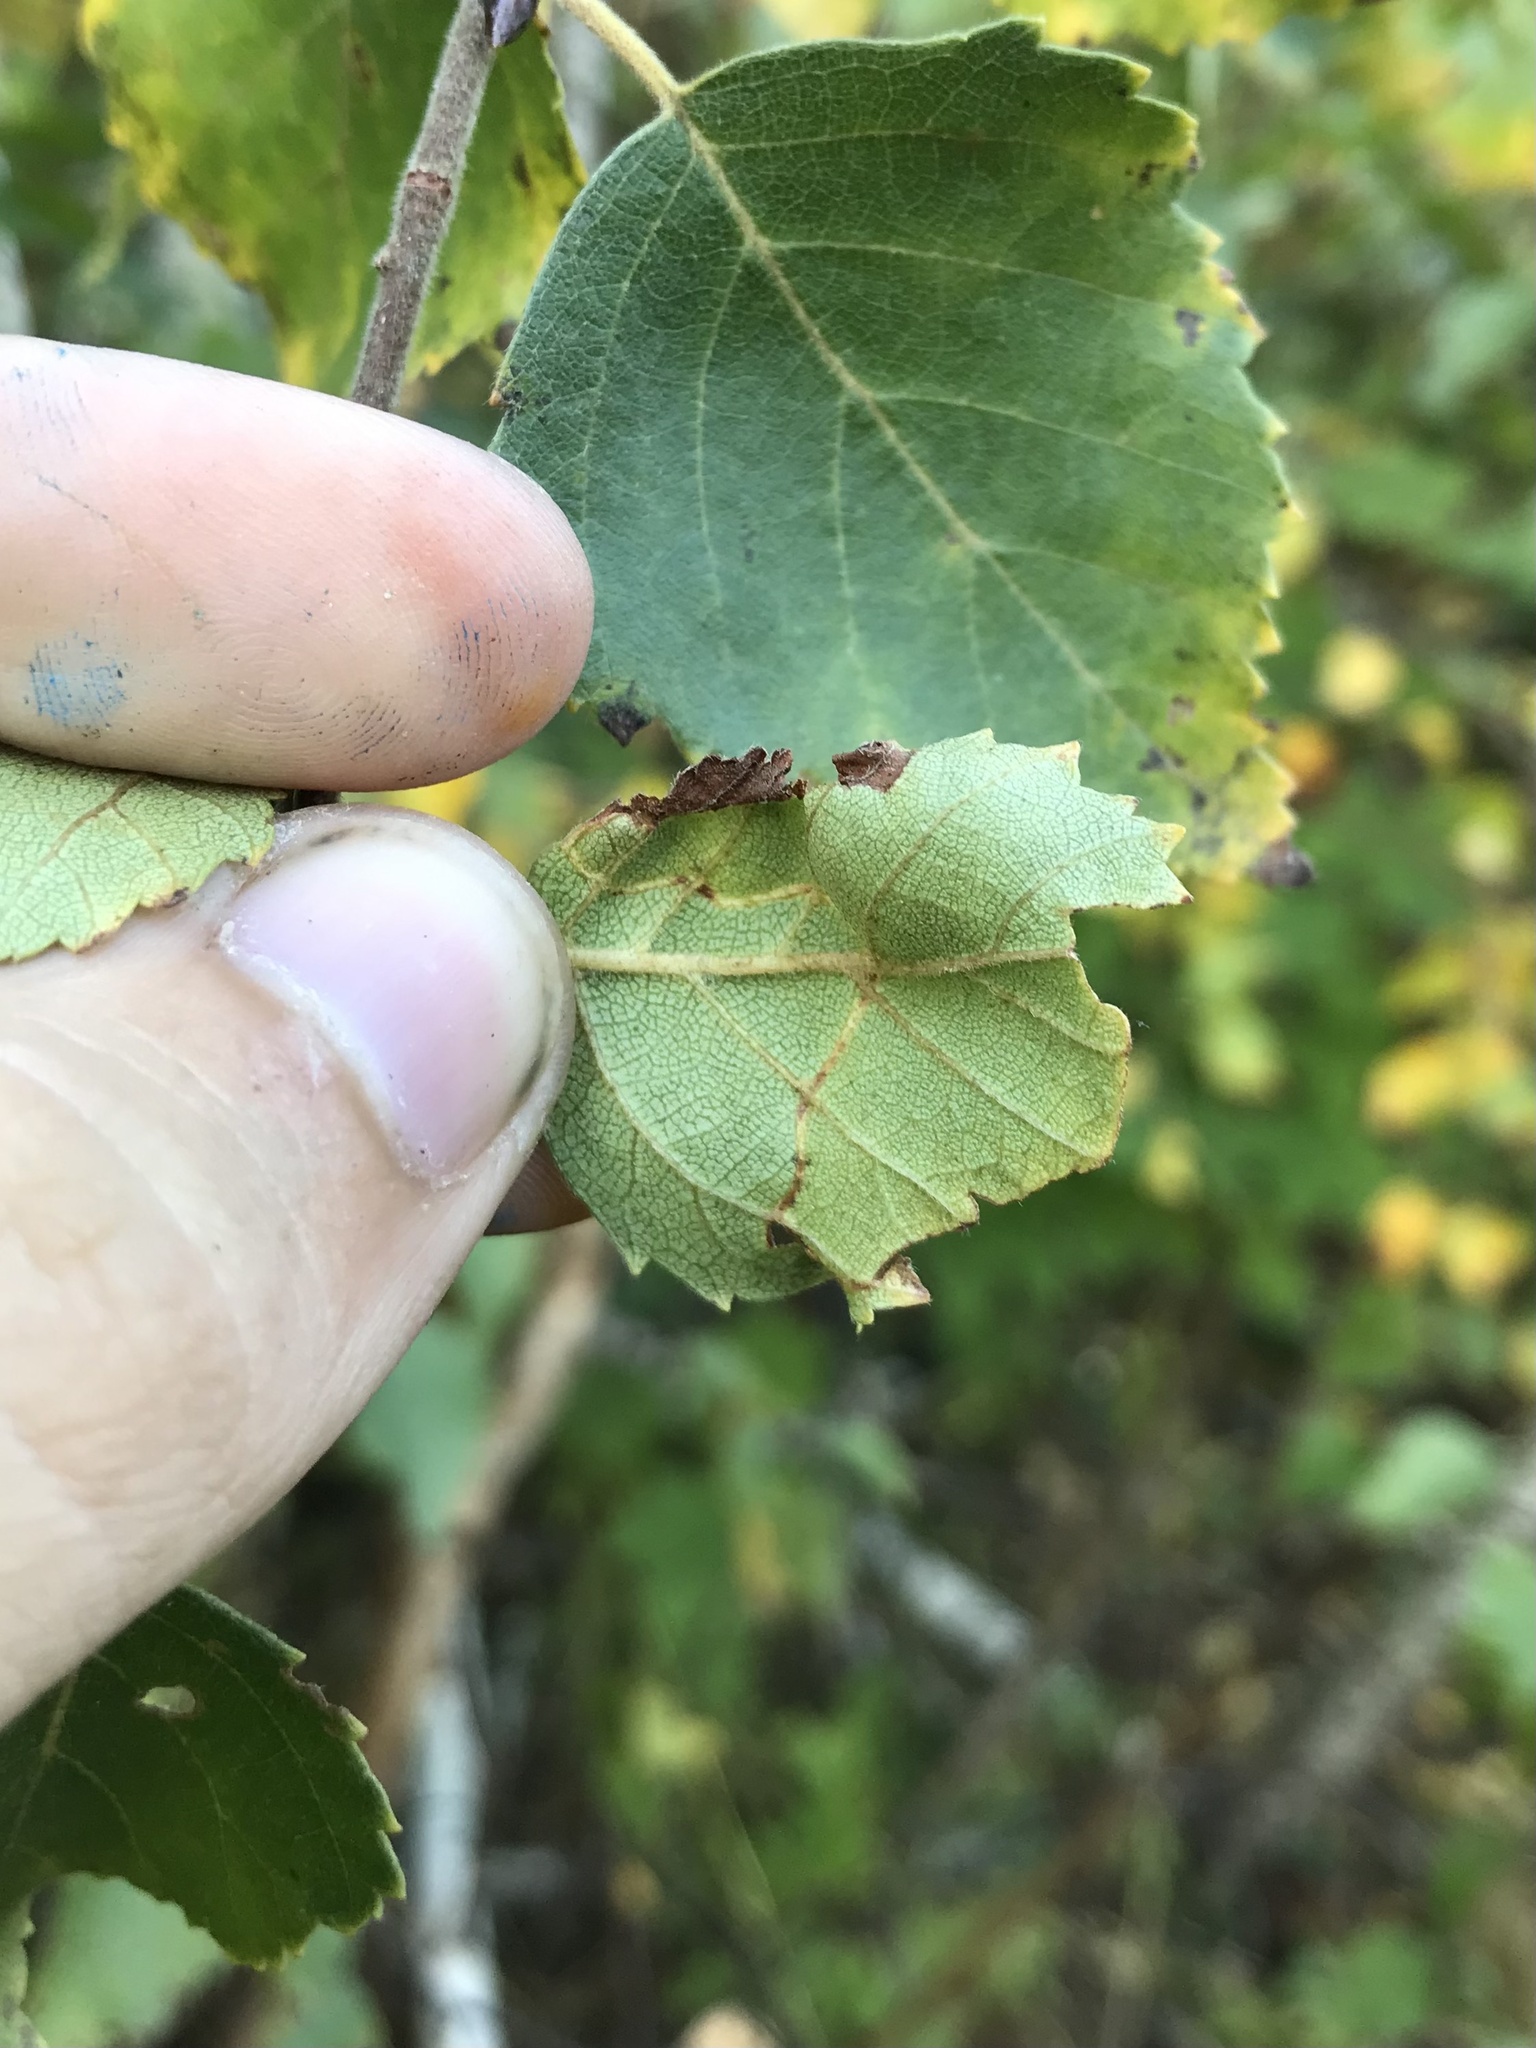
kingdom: Animalia
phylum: Arthropoda
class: Insecta
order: Lepidoptera
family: Lyonetiidae
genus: Lyonetia
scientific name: Lyonetia prunifoliella
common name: Striped bent-wing
